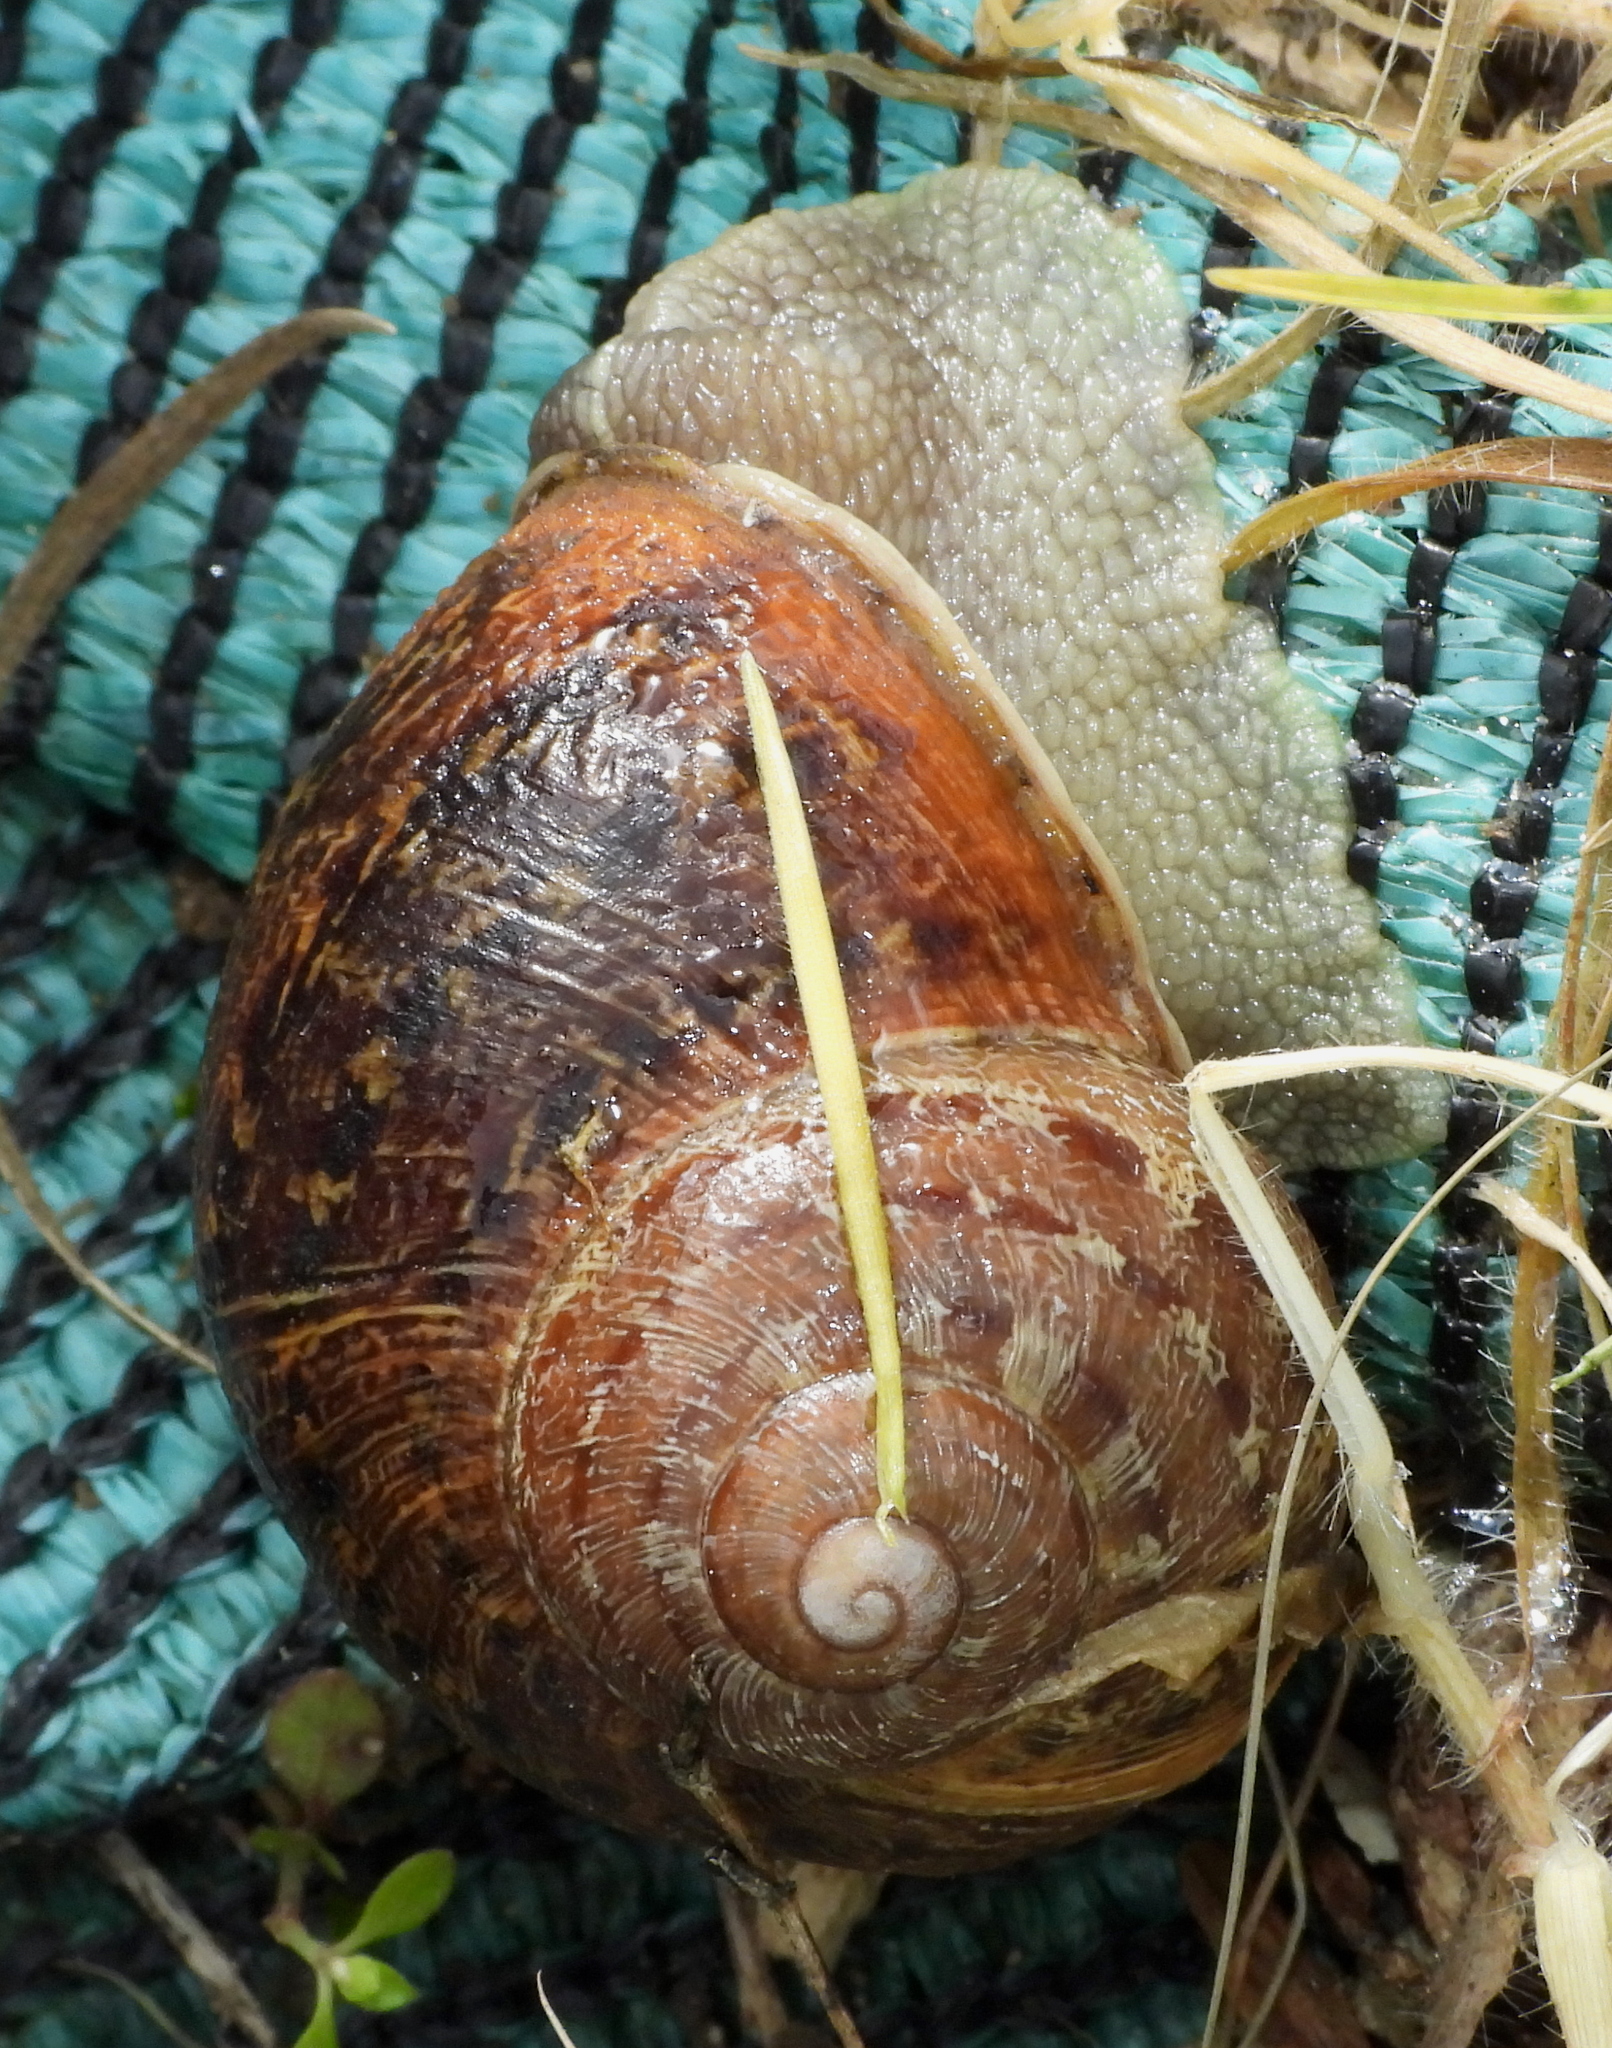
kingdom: Animalia
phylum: Mollusca
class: Gastropoda
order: Stylommatophora
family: Helicidae
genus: Cornu
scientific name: Cornu aspersum
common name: Brown garden snail
